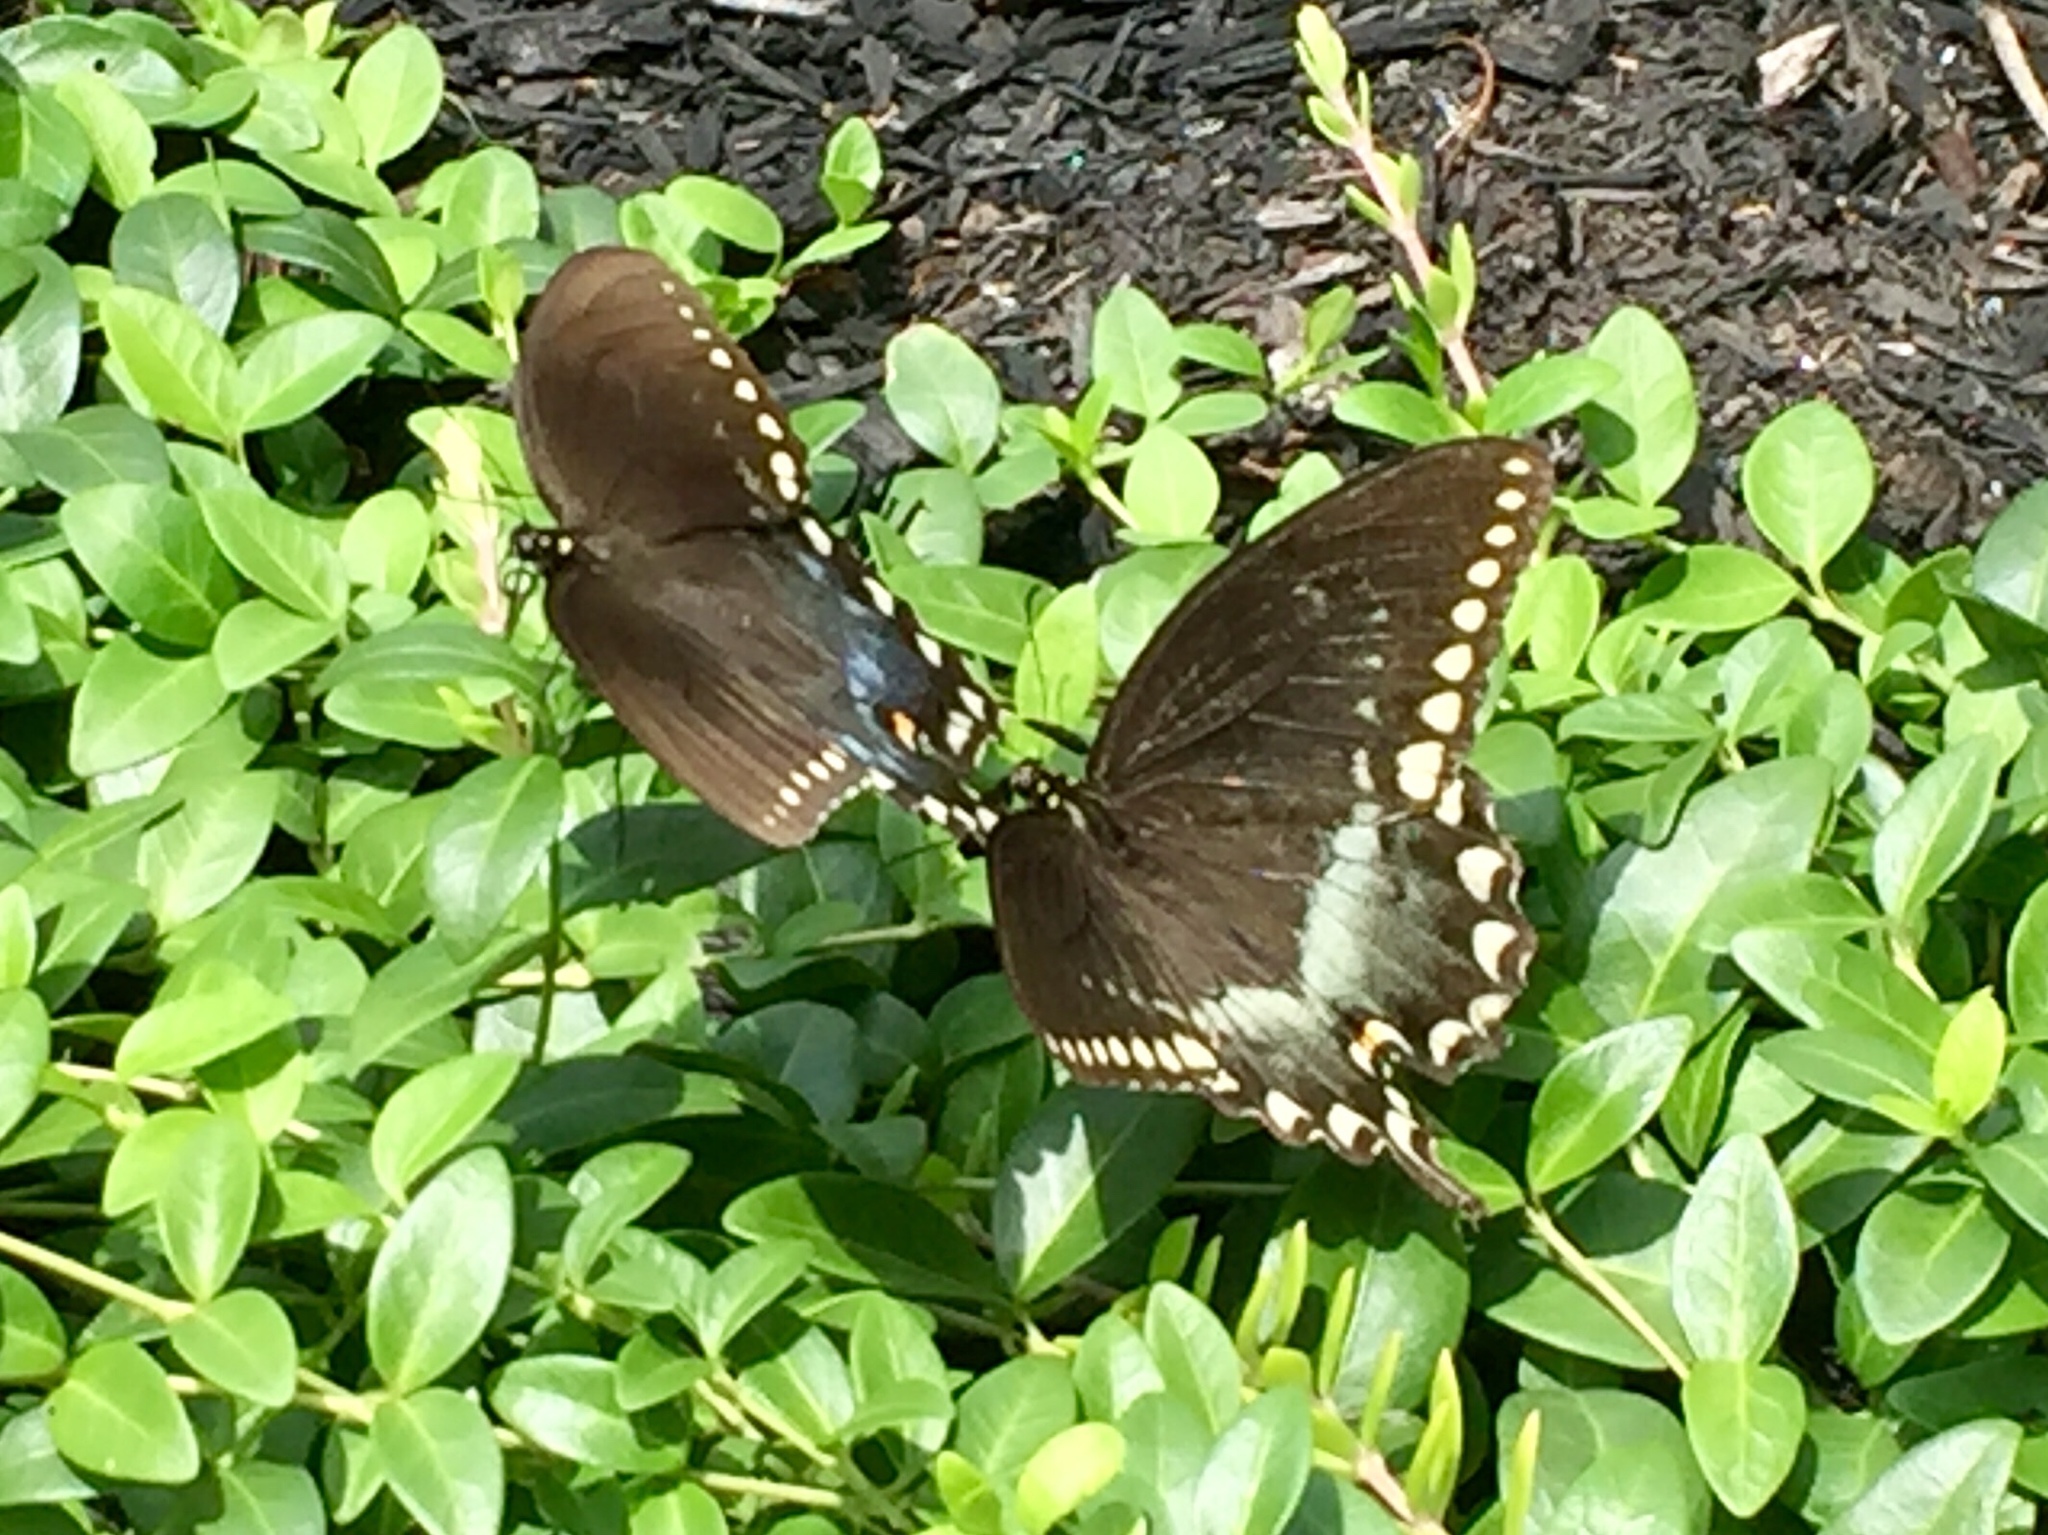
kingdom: Animalia
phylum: Arthropoda
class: Insecta
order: Lepidoptera
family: Papilionidae
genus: Papilio
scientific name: Papilio troilus
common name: Spicebush swallowtail
